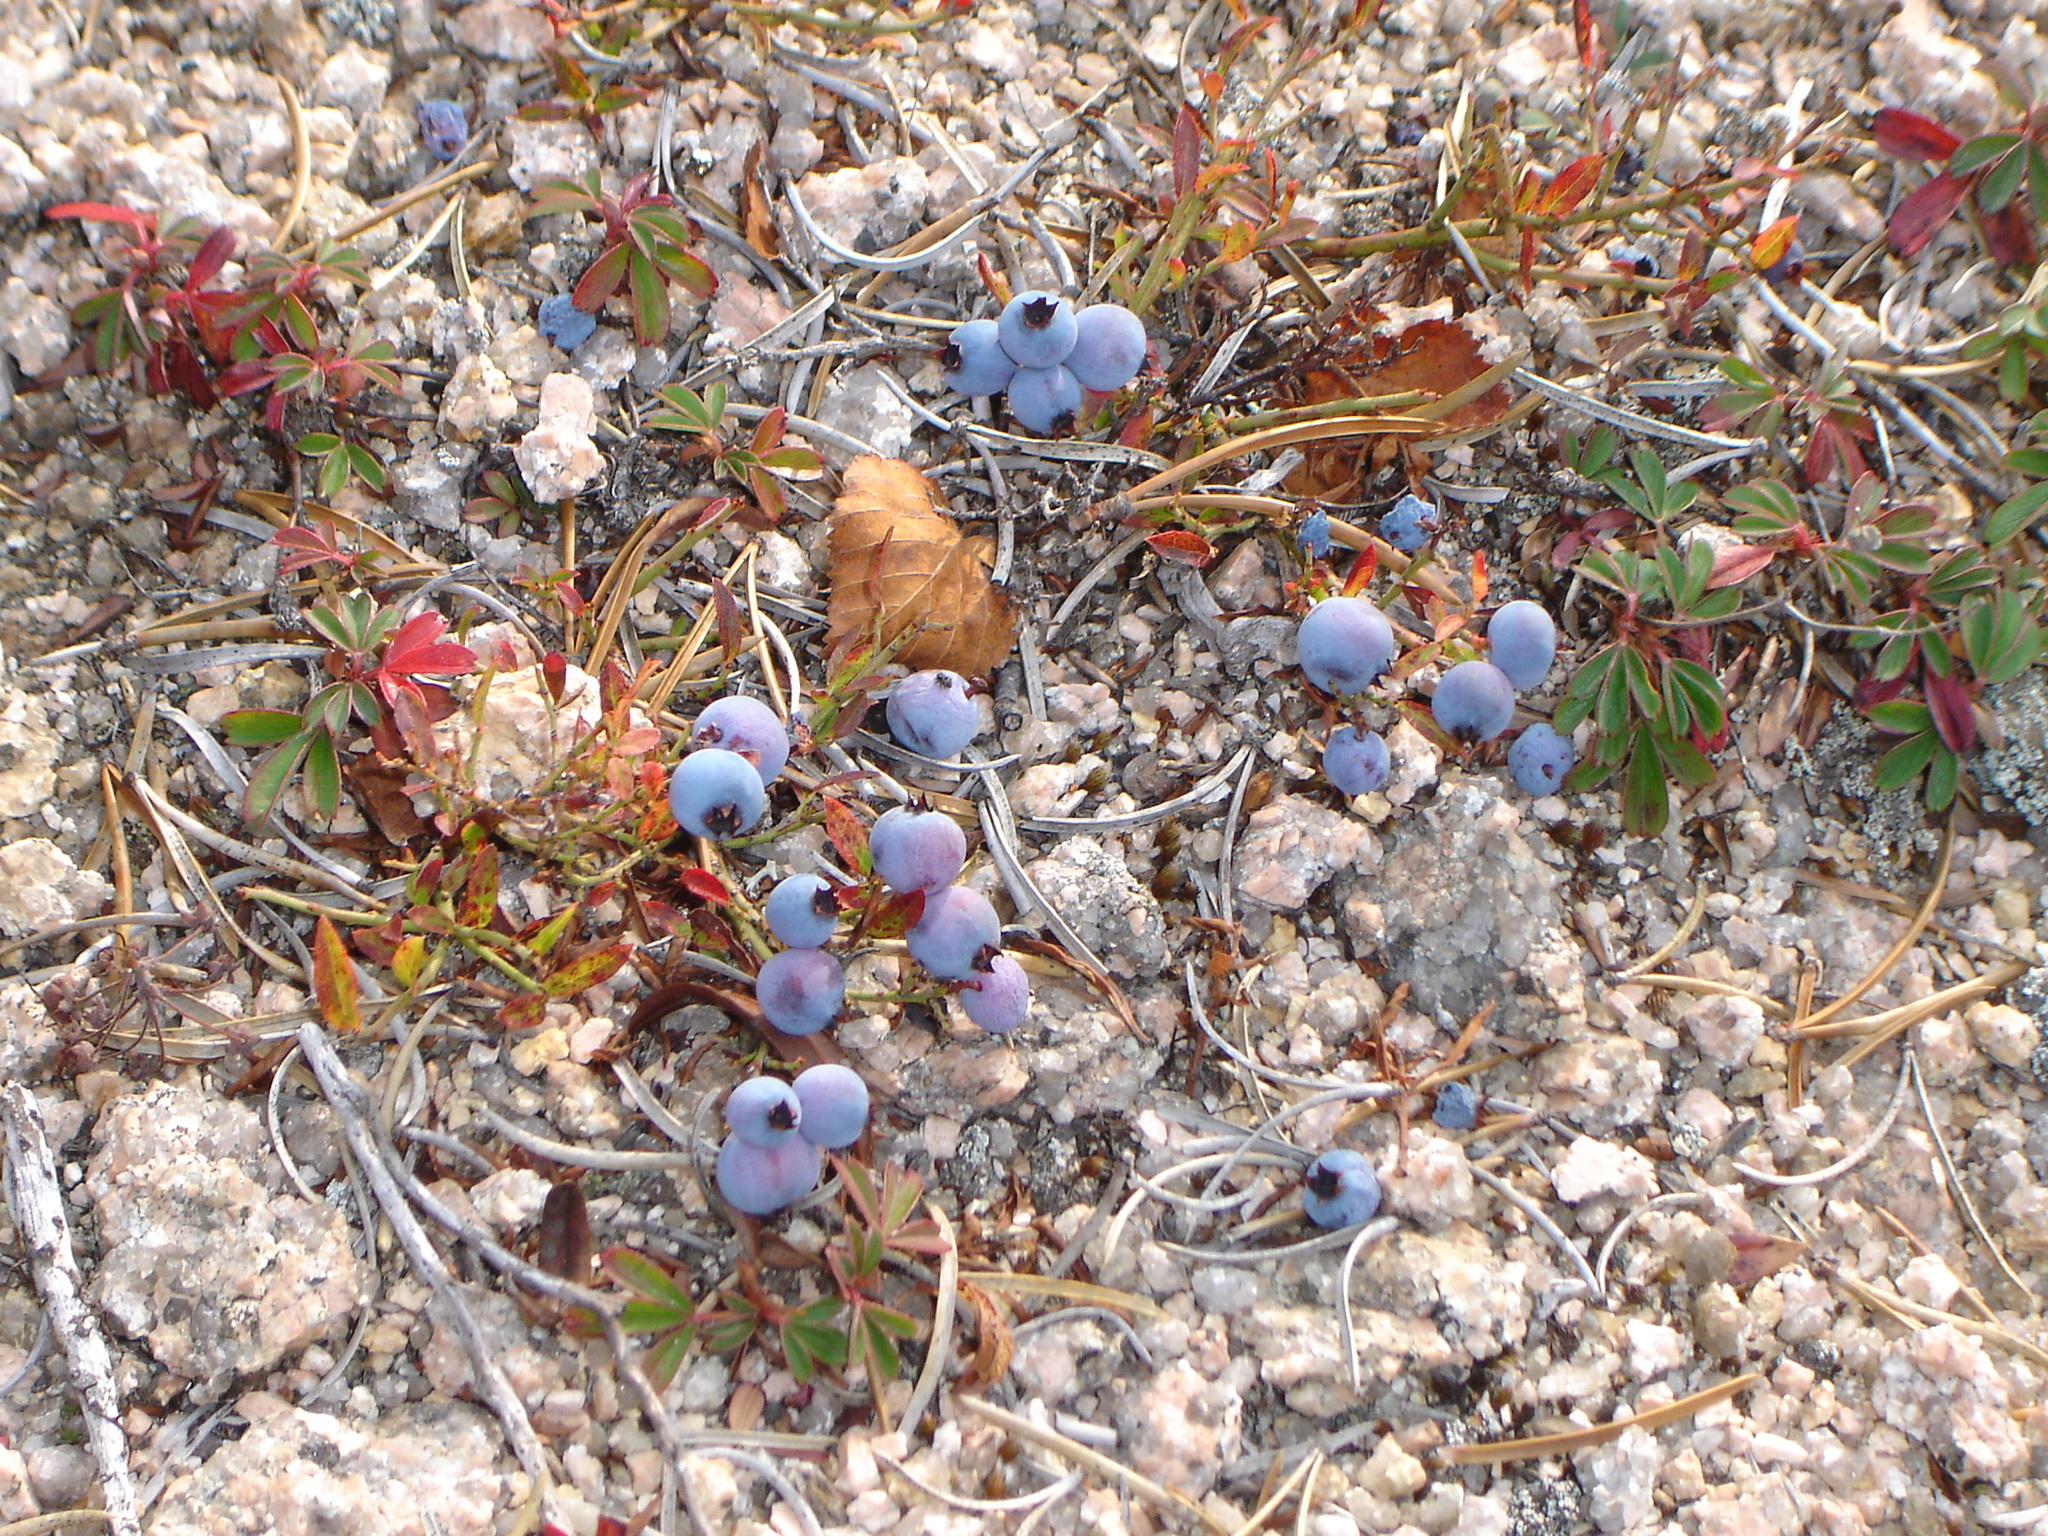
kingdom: Plantae
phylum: Tracheophyta
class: Magnoliopsida
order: Ericales
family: Ericaceae
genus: Vaccinium
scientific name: Vaccinium angustifolium
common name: Early lowbush blueberry
